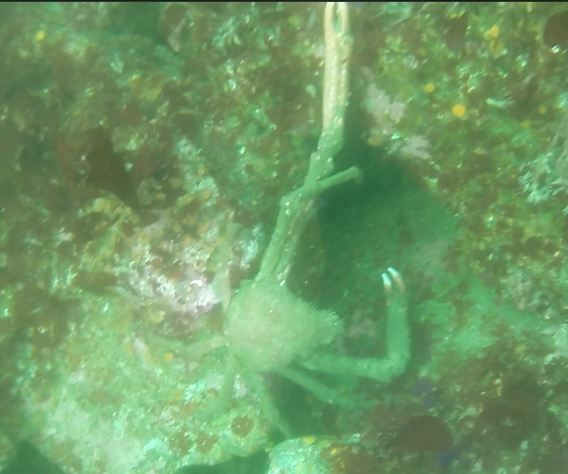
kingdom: Animalia
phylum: Arthropoda
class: Malacostraca
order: Decapoda
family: Epialtidae
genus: Loxorhynchus
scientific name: Loxorhynchus grandis
